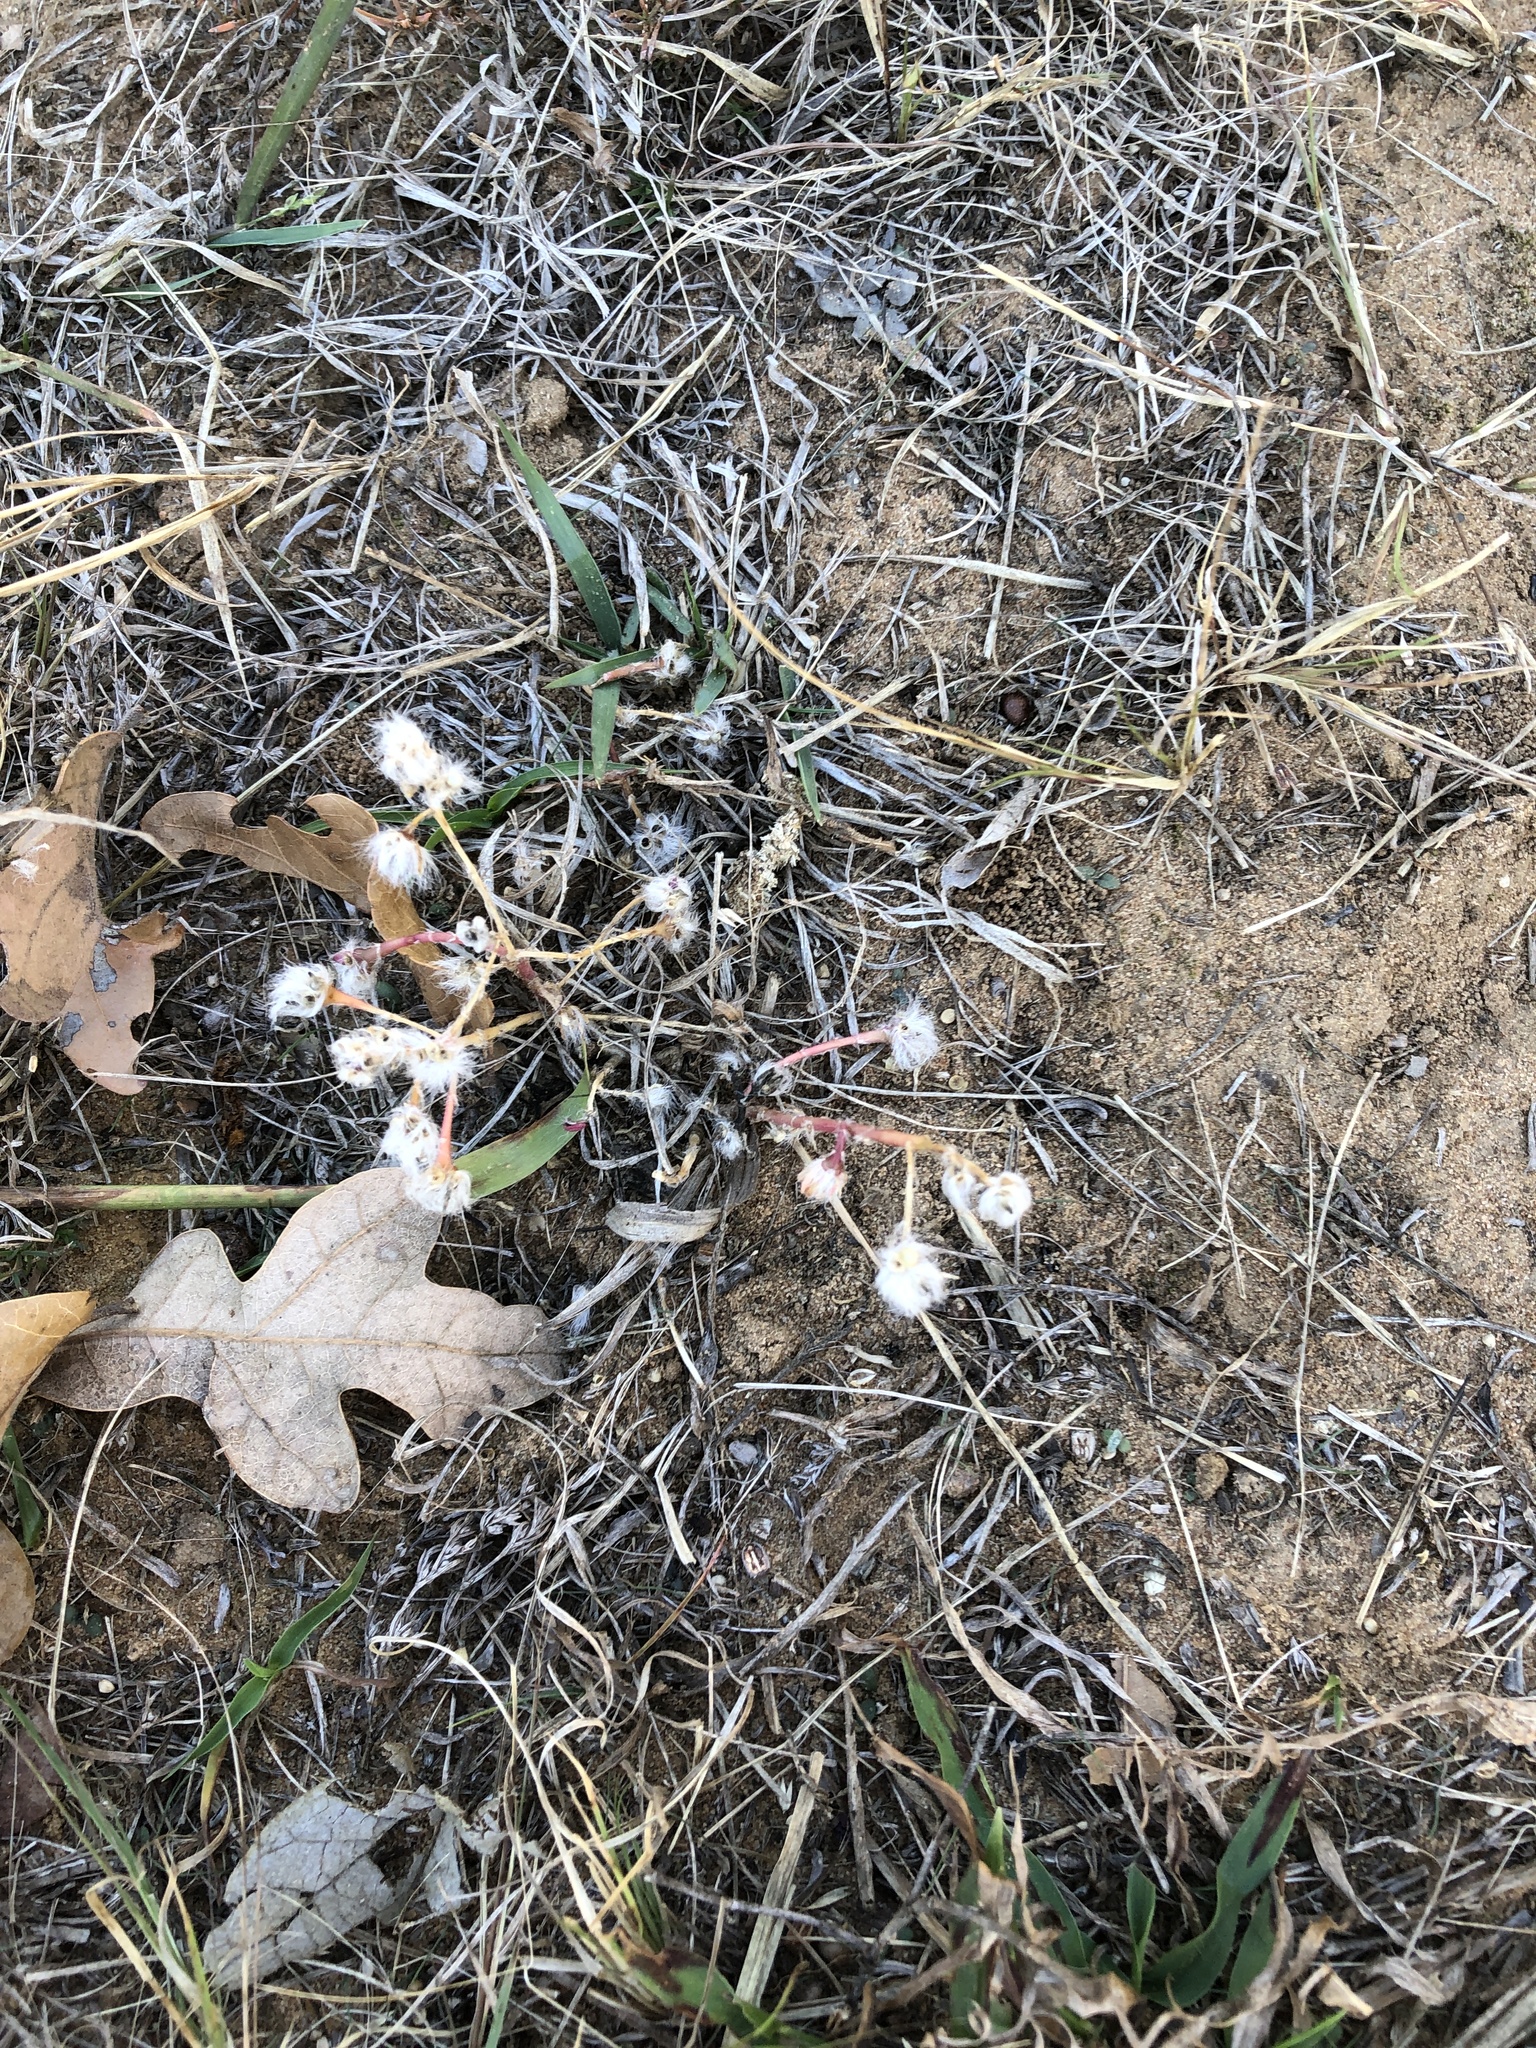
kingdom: Plantae
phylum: Tracheophyta
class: Magnoliopsida
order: Caryophyllales
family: Portulacaceae
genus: Portulaca
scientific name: Portulaca pilosa
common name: Kiss me quick
